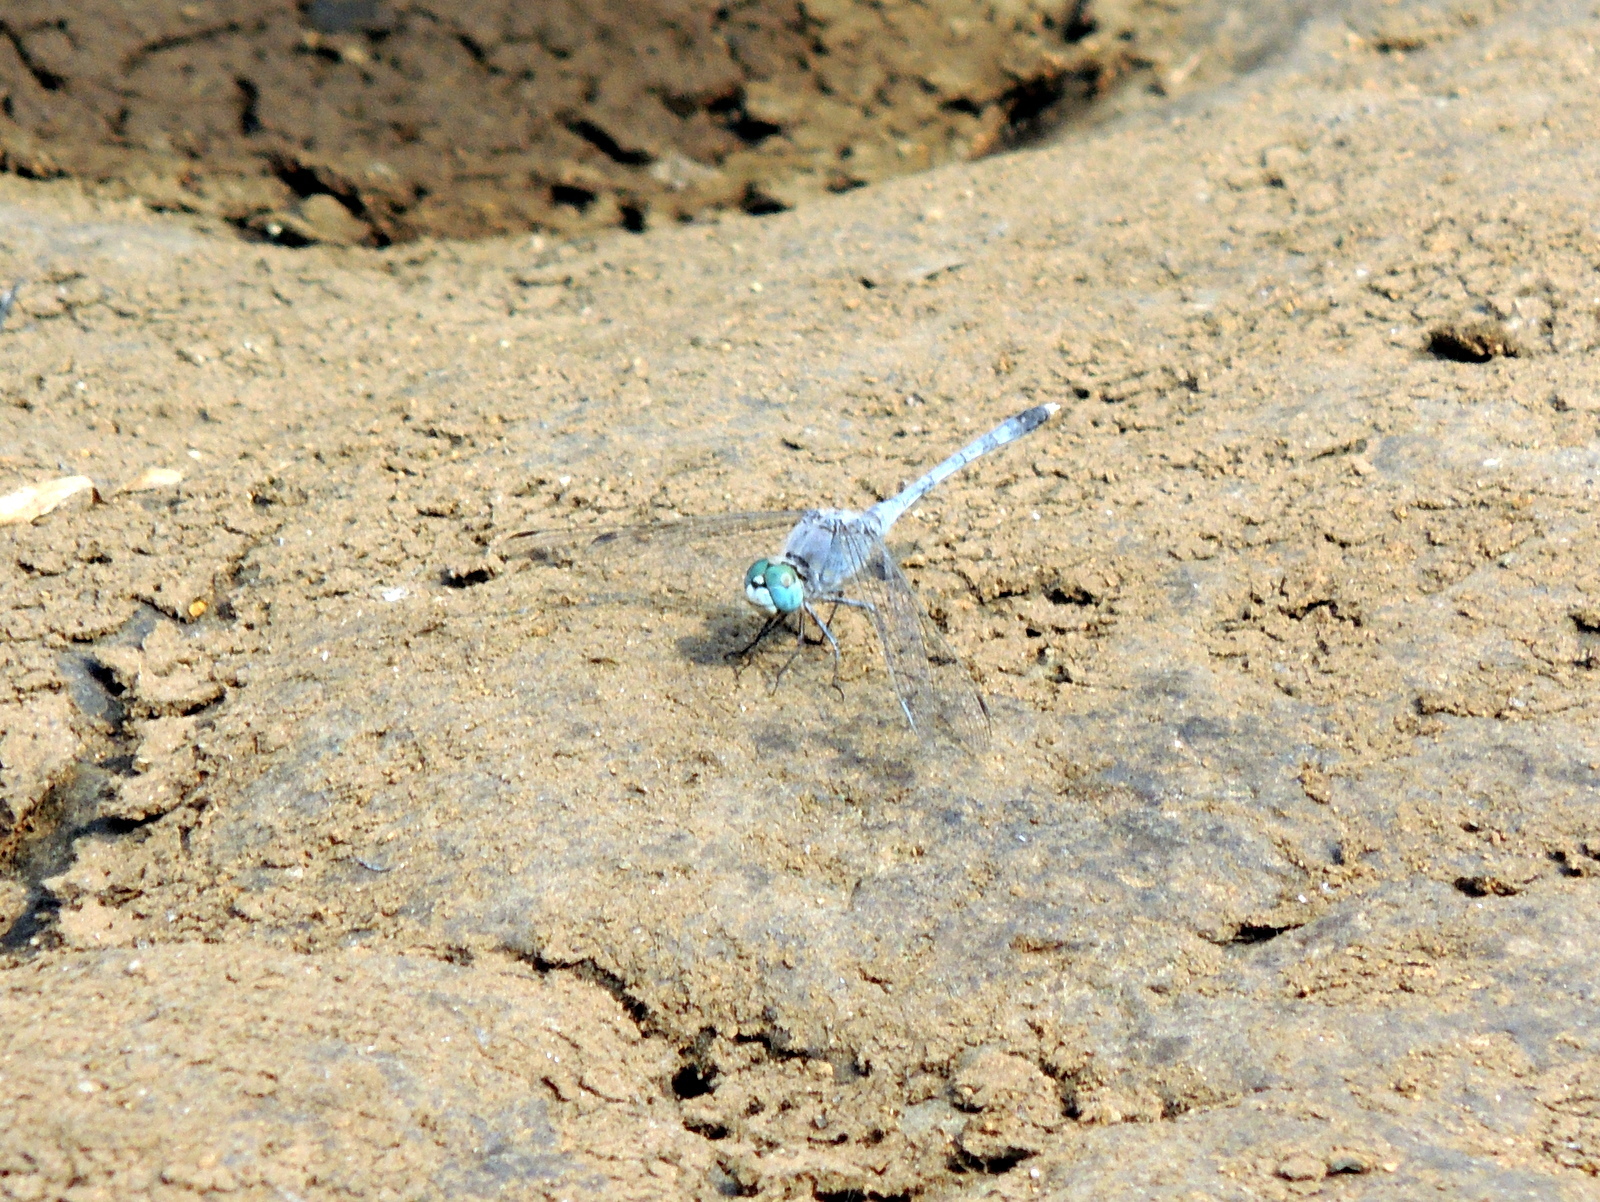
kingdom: Animalia
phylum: Arthropoda
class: Insecta
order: Odonata
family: Libellulidae
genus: Diplacodes
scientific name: Diplacodes trivialis
